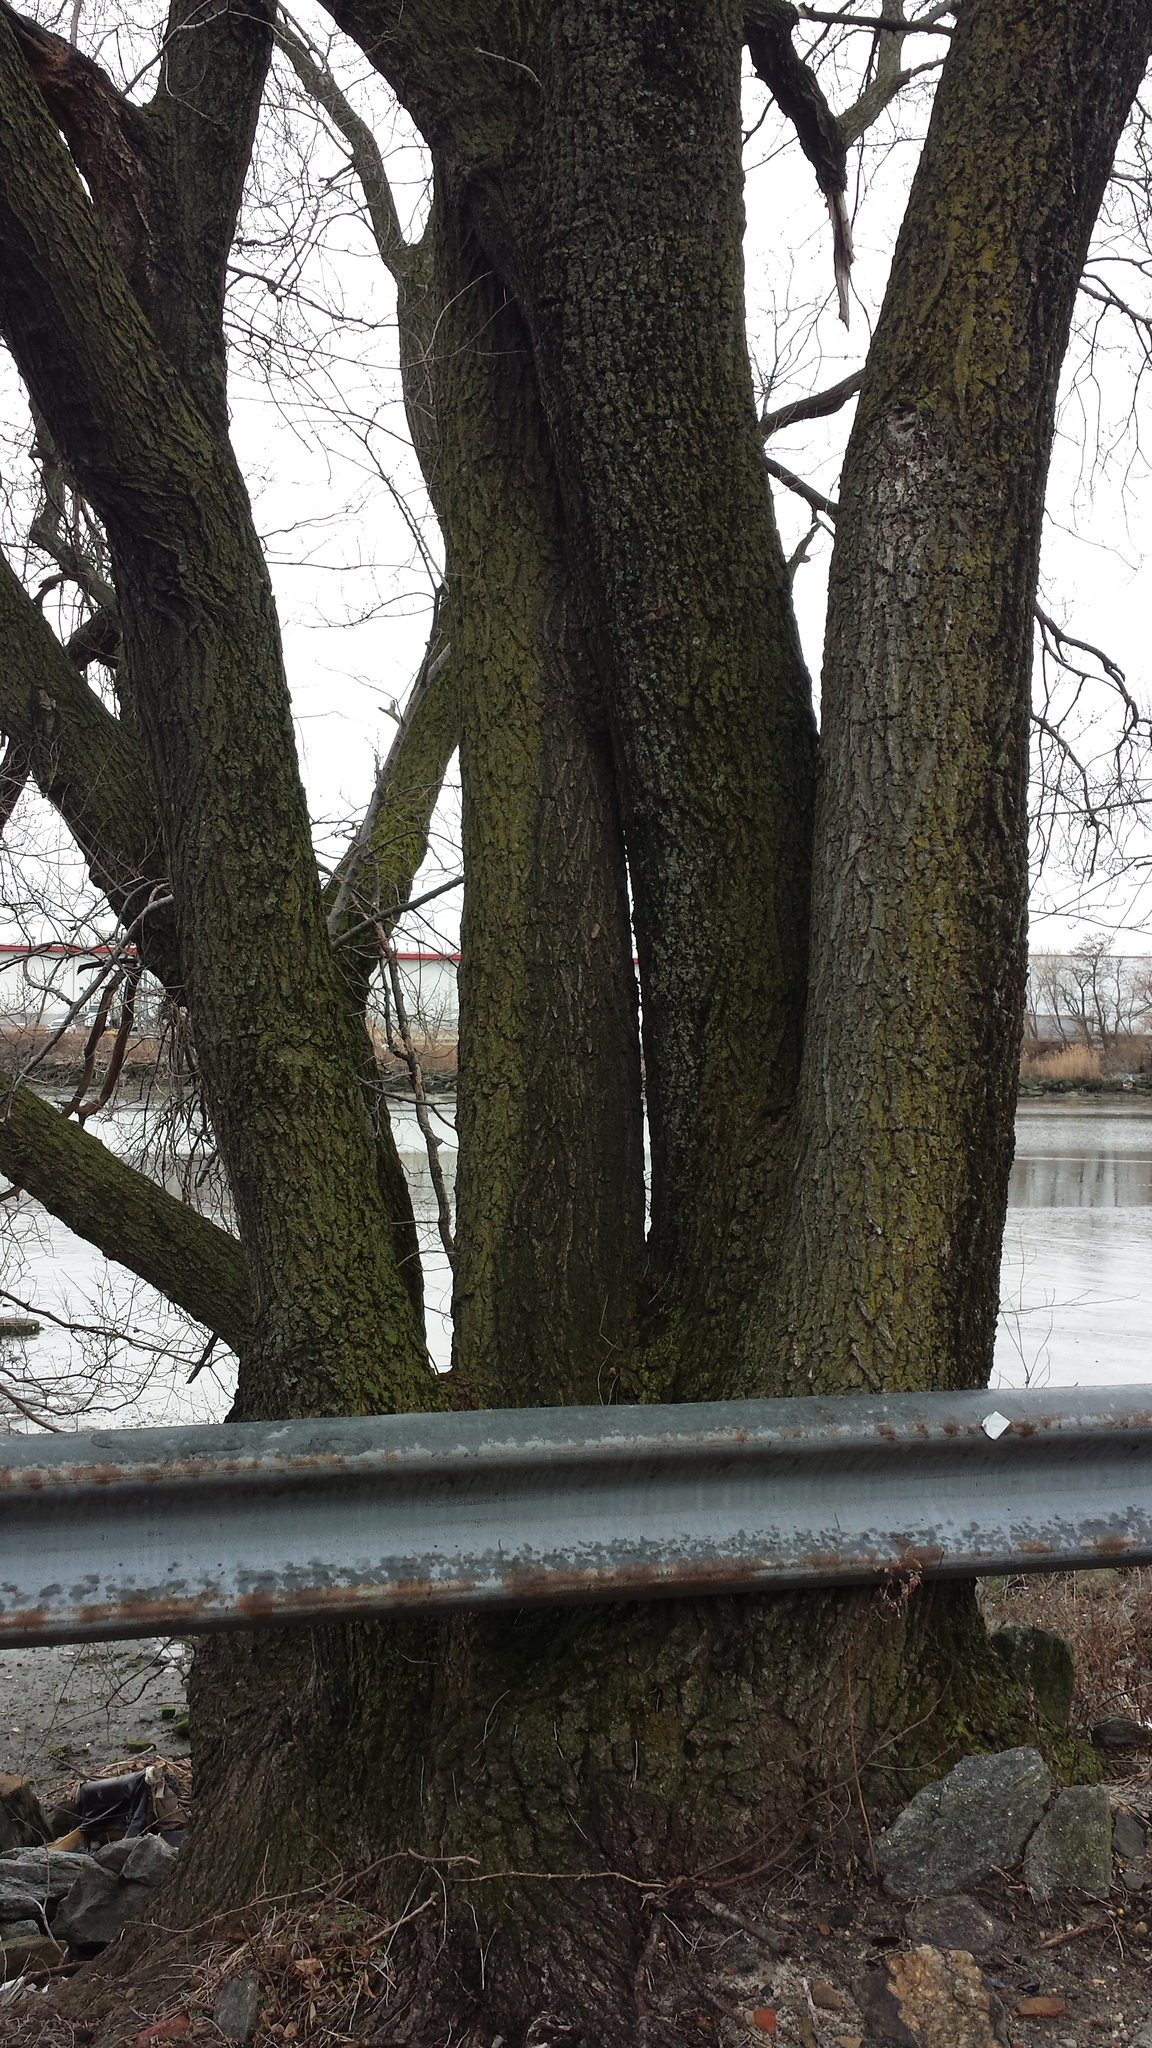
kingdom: Plantae
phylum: Tracheophyta
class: Magnoliopsida
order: Rosales
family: Ulmaceae
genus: Ulmus
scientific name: Ulmus pumila
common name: Siberian elm
